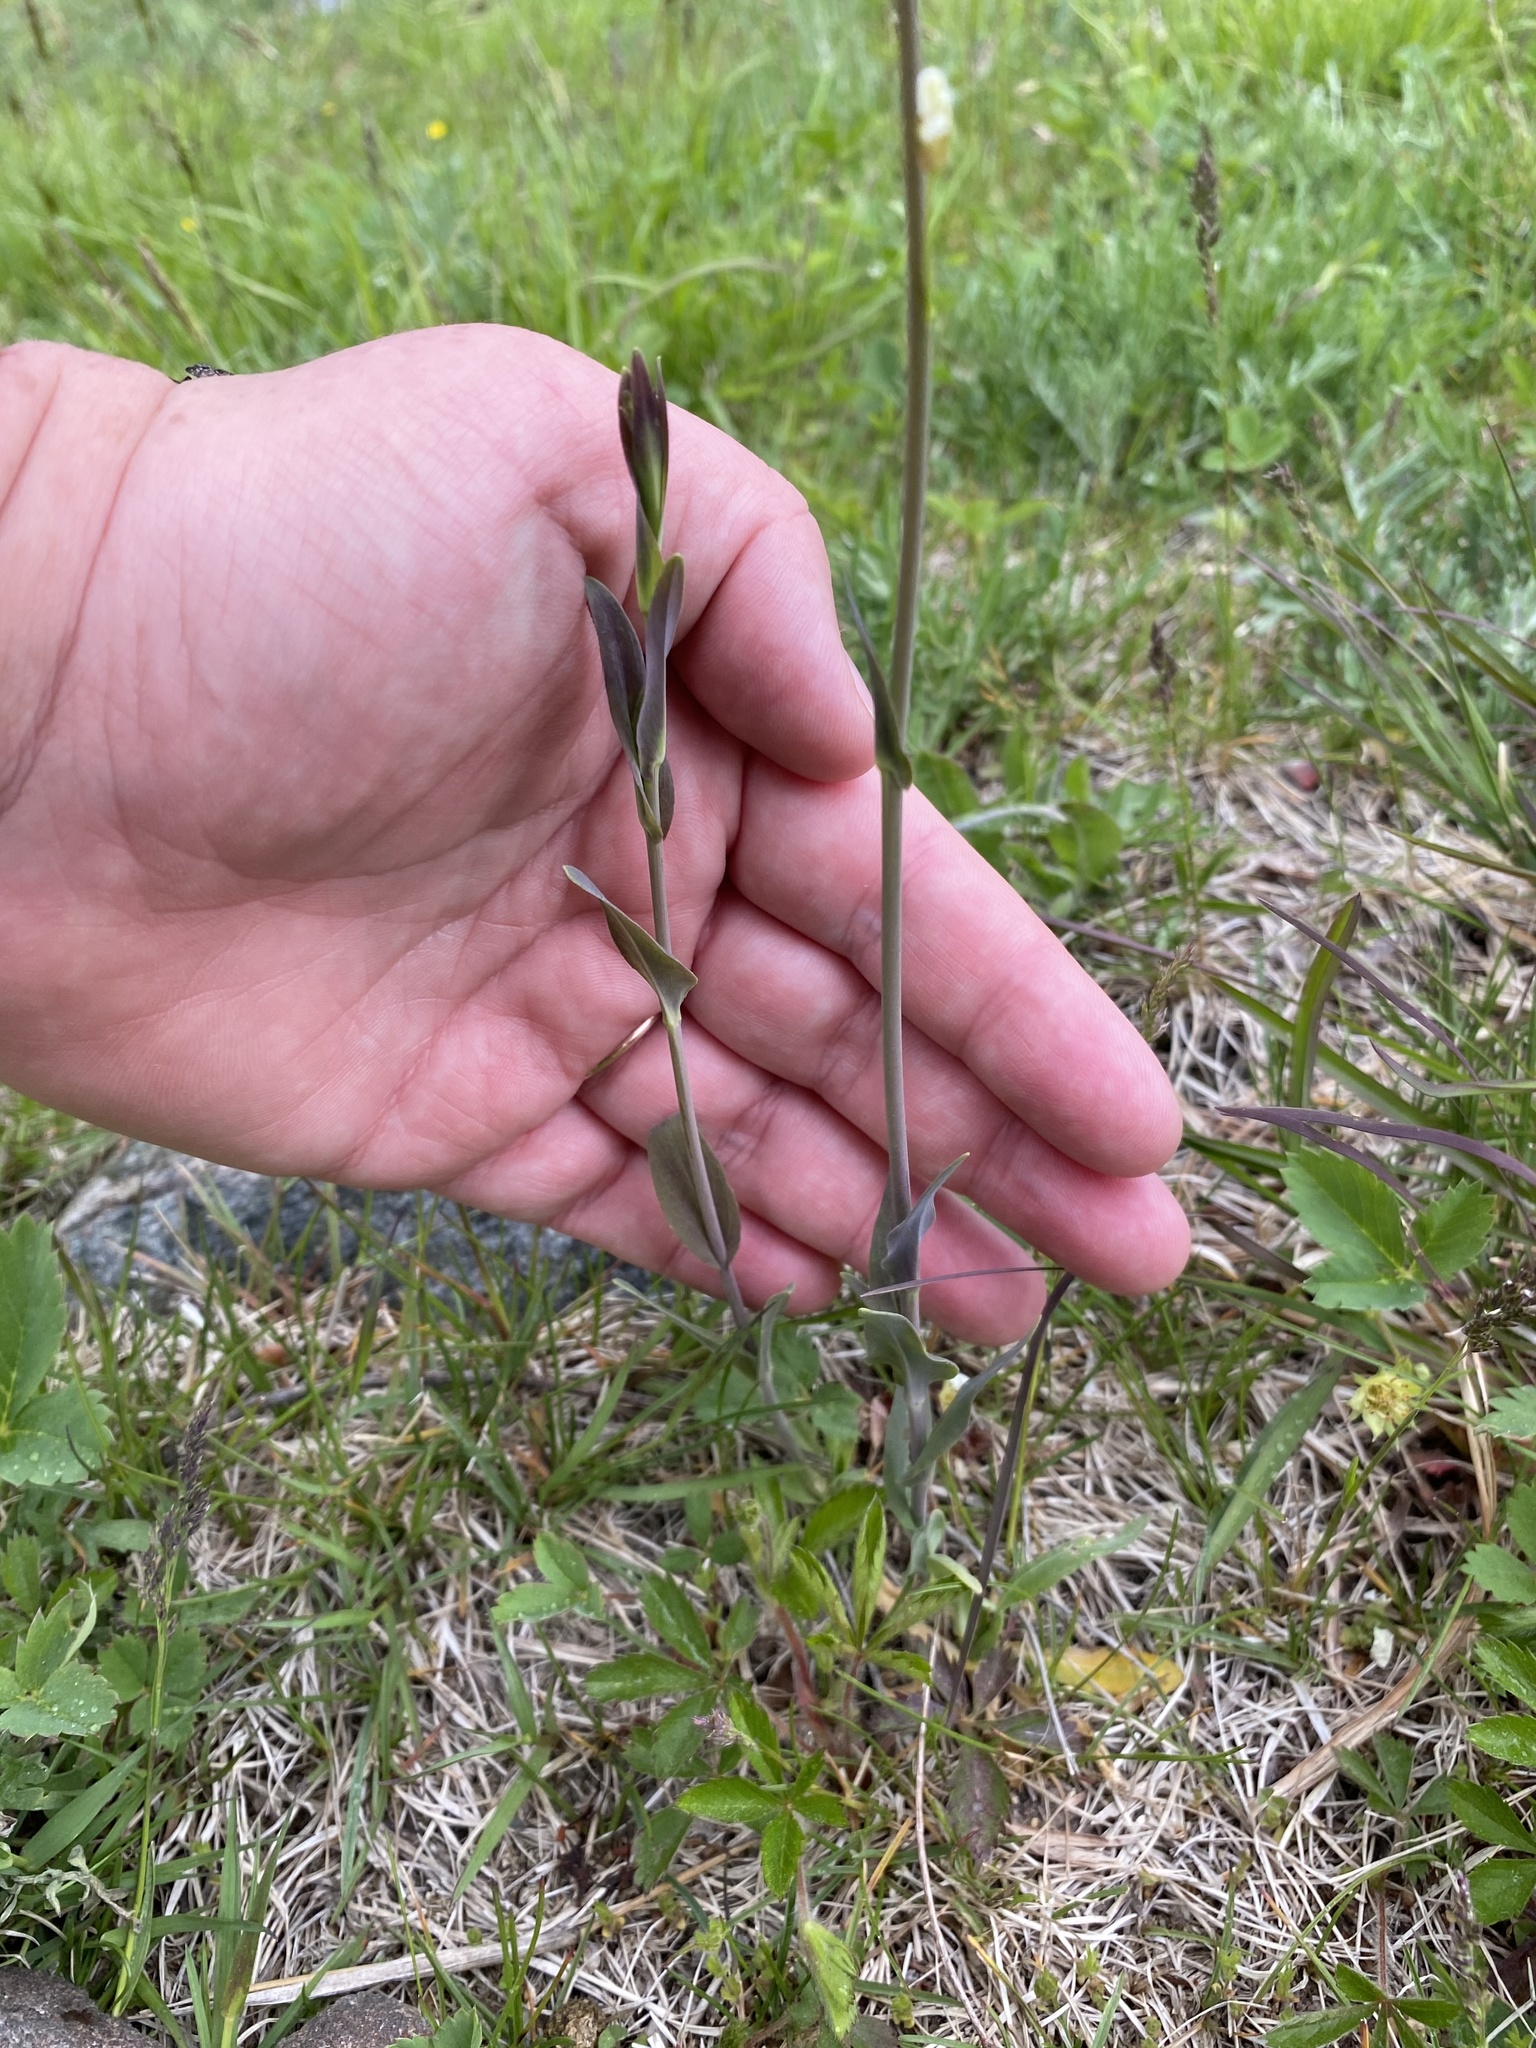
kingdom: Plantae
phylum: Tracheophyta
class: Magnoliopsida
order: Brassicales
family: Brassicaceae
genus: Turritis
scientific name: Turritis glabra
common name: Tower rockcress
